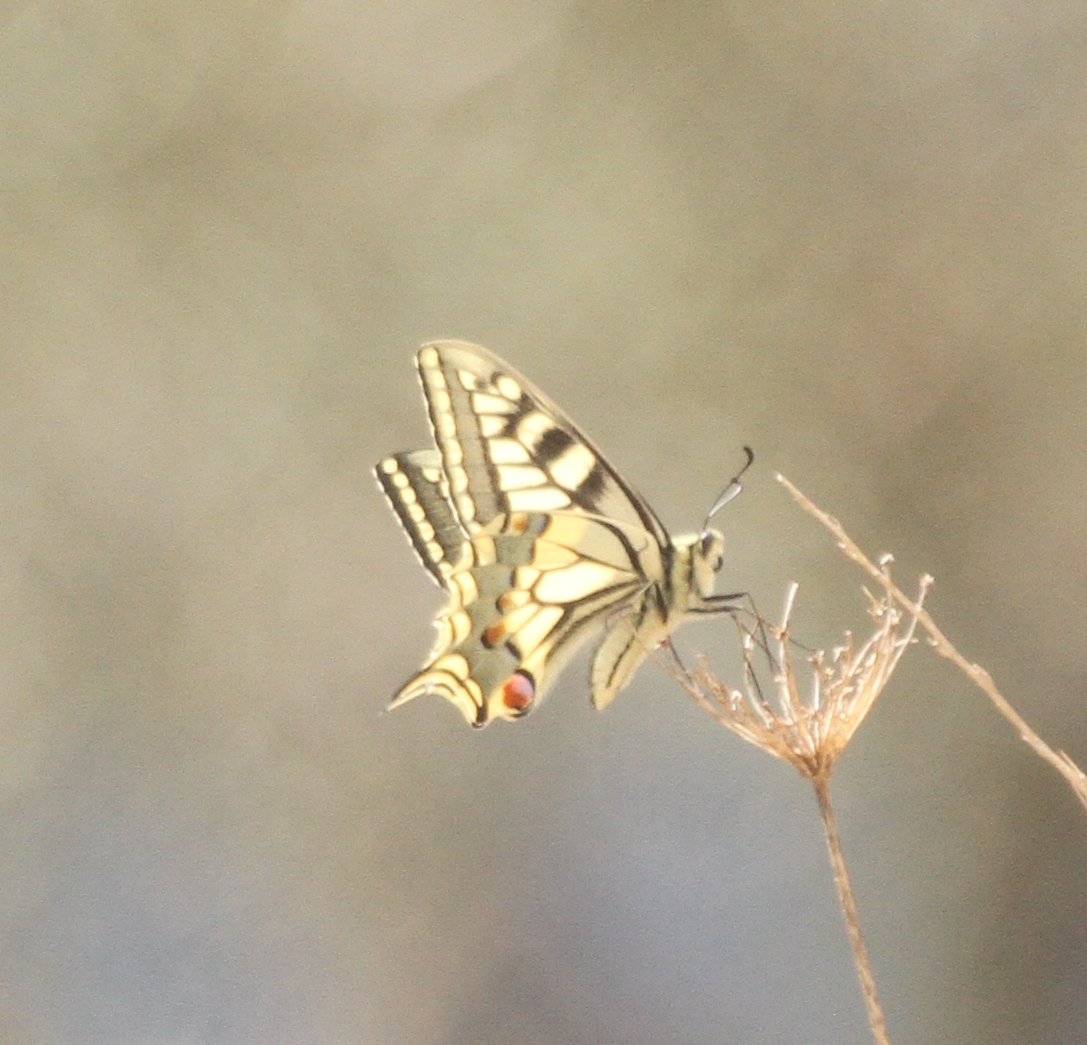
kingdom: Animalia
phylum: Arthropoda
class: Insecta
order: Lepidoptera
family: Papilionidae
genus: Papilio
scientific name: Papilio machaon
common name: Swallowtail
